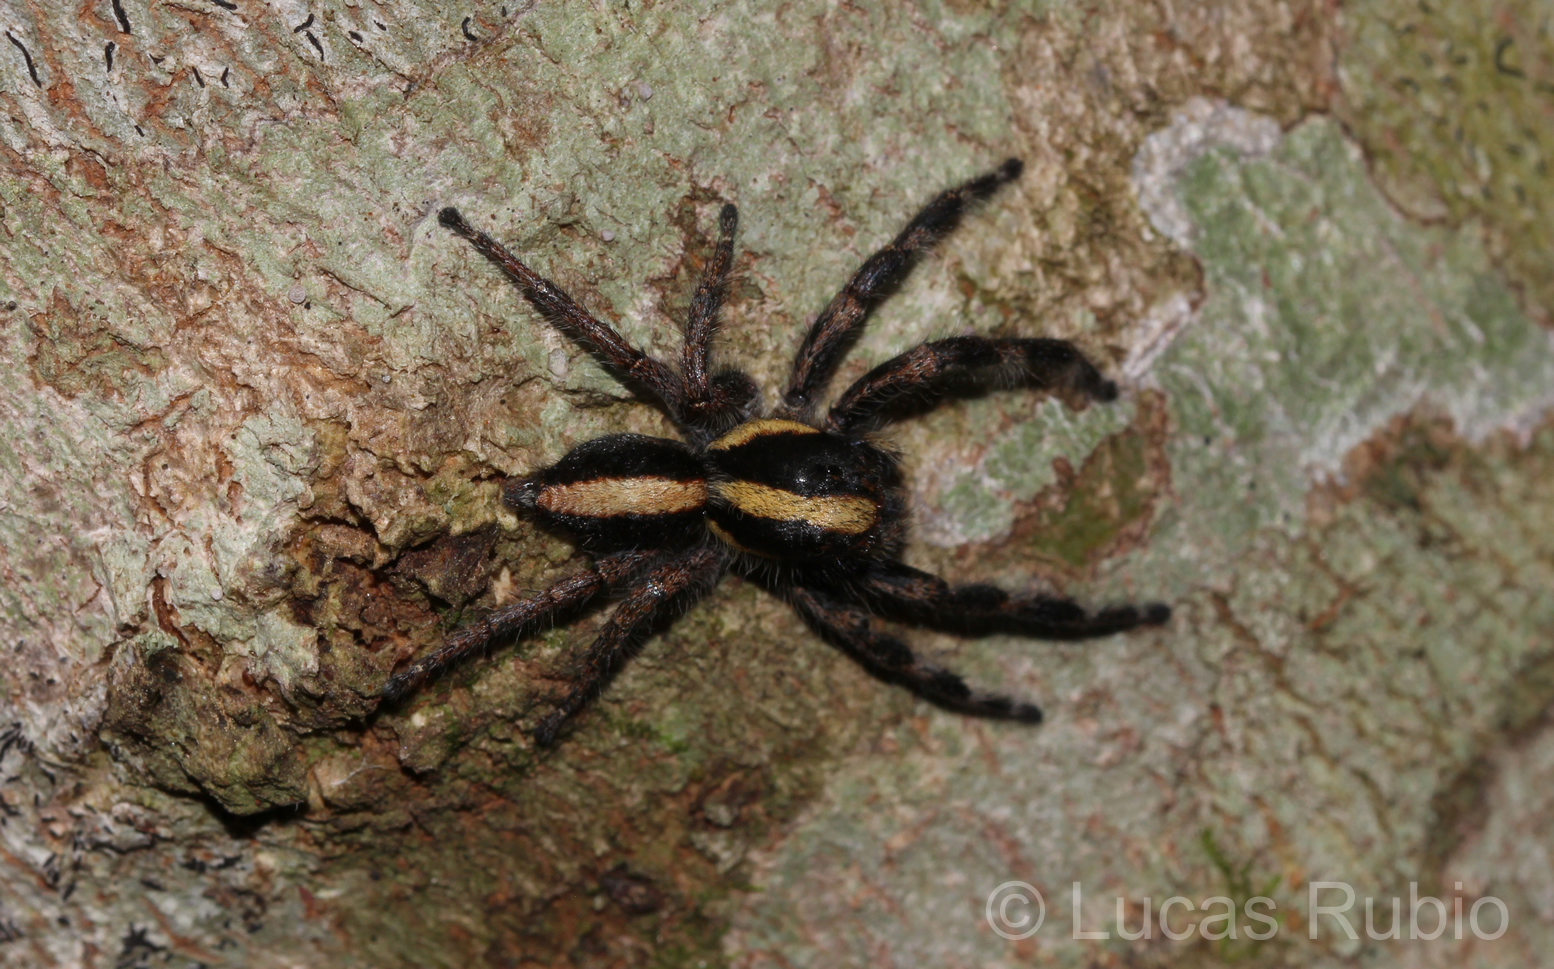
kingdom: Animalia
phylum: Arthropoda
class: Arachnida
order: Araneae
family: Salticidae
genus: Megafreya
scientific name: Megafreya sutrix
